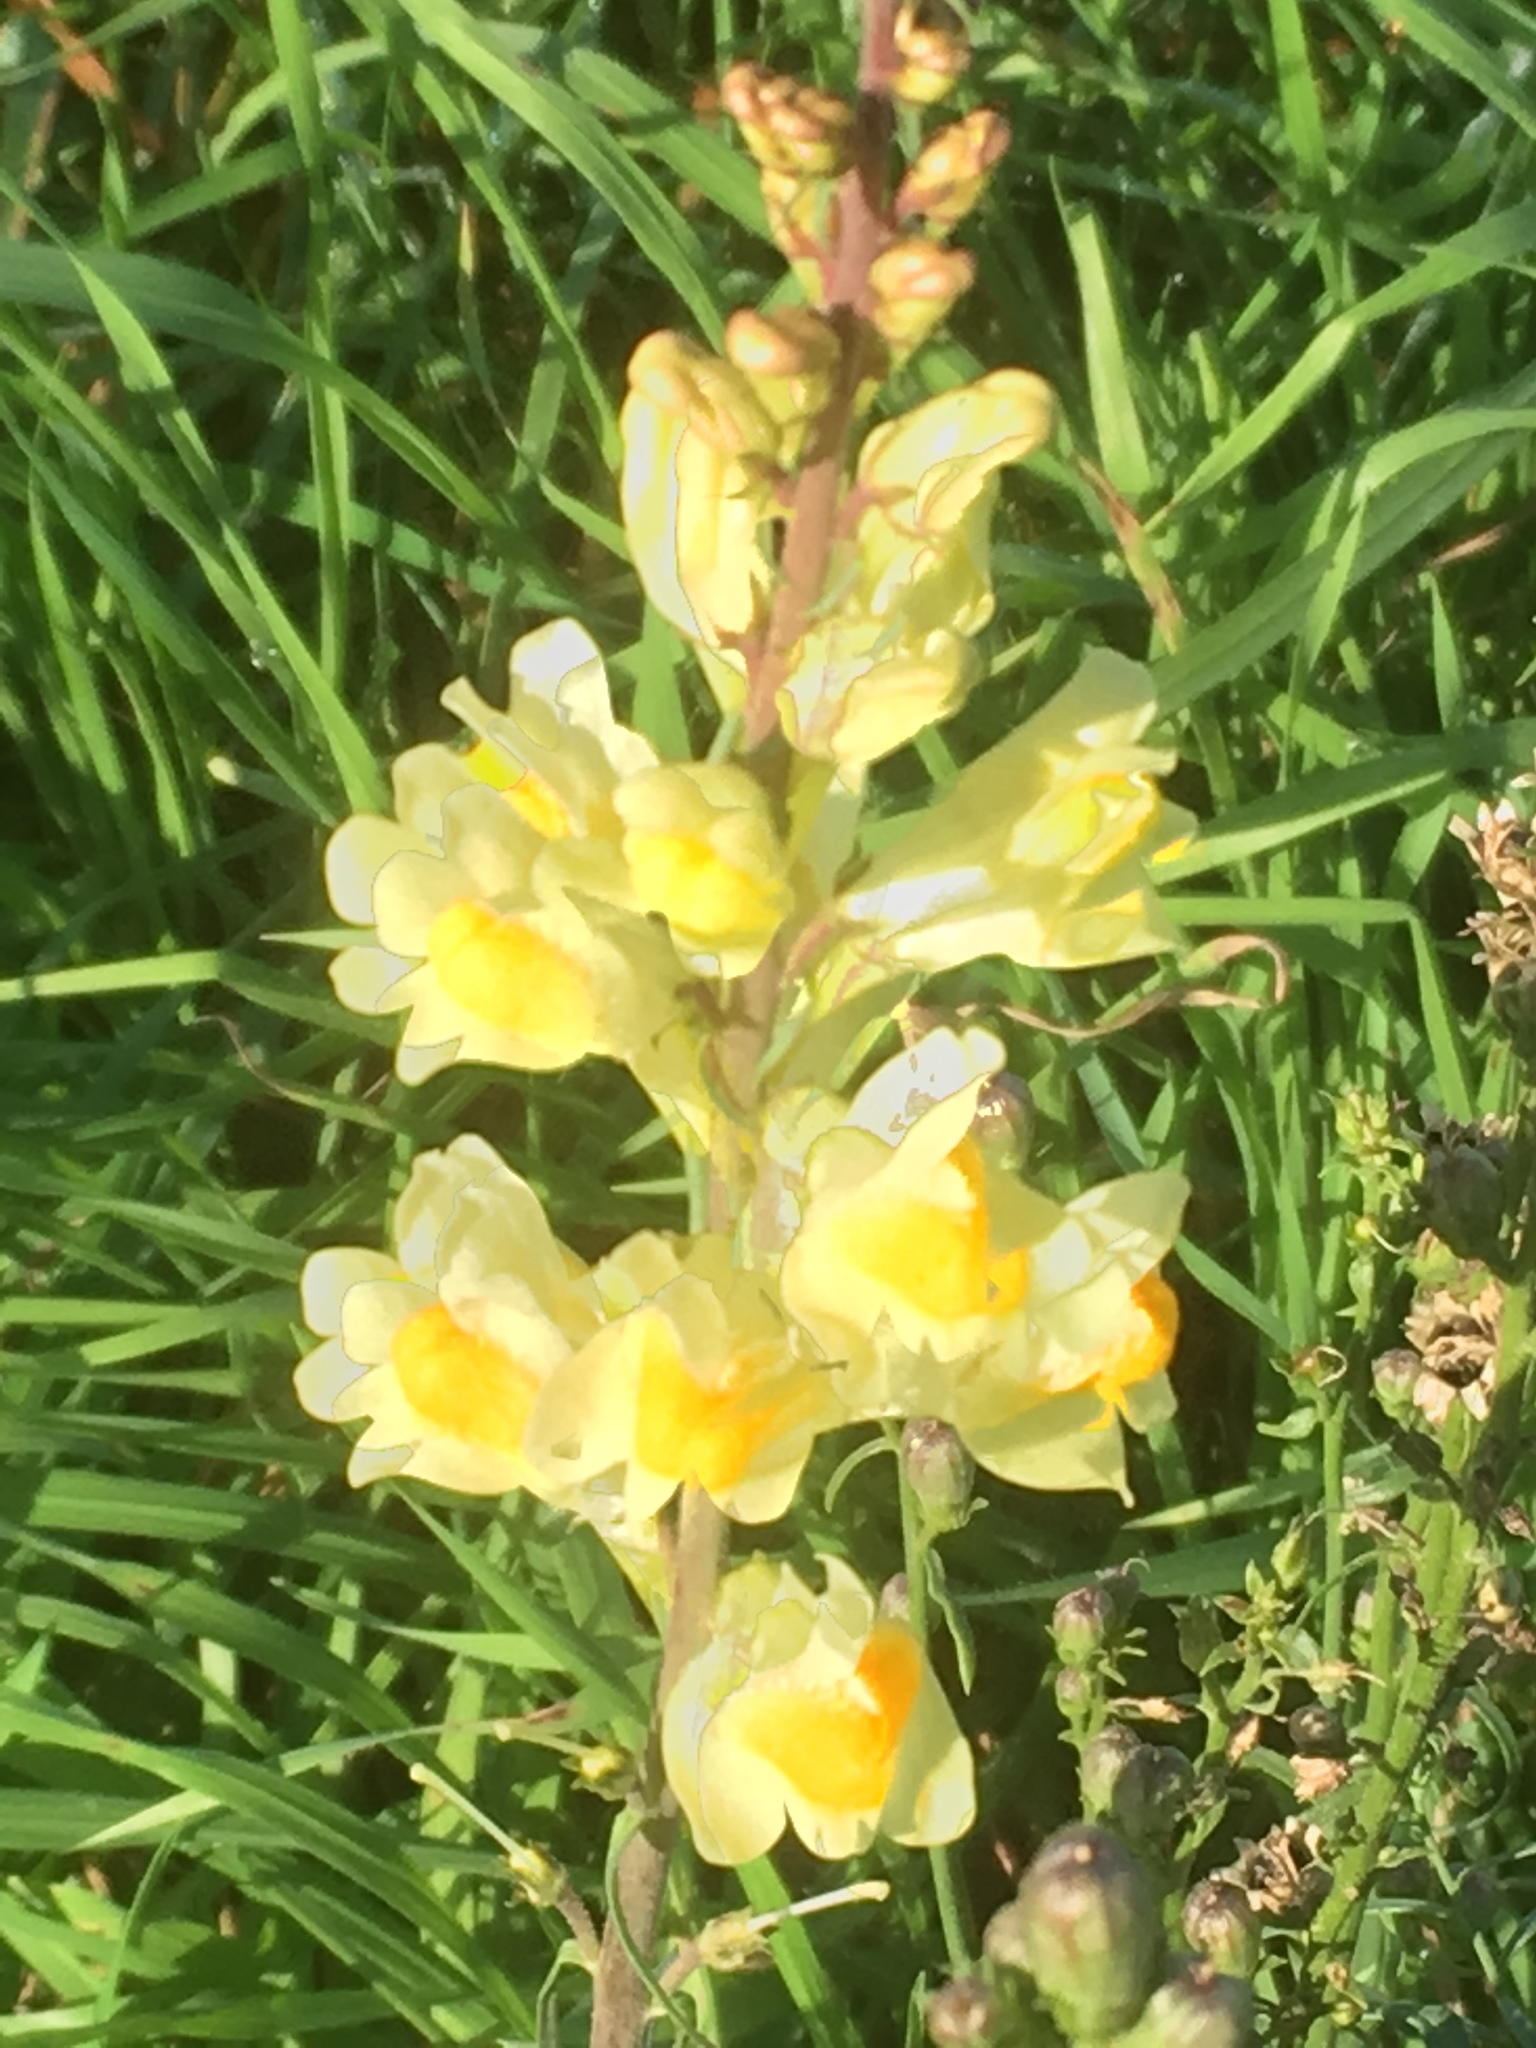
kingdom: Plantae
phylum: Tracheophyta
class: Magnoliopsida
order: Lamiales
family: Plantaginaceae
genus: Linaria
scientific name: Linaria vulgaris
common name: Butter and eggs
